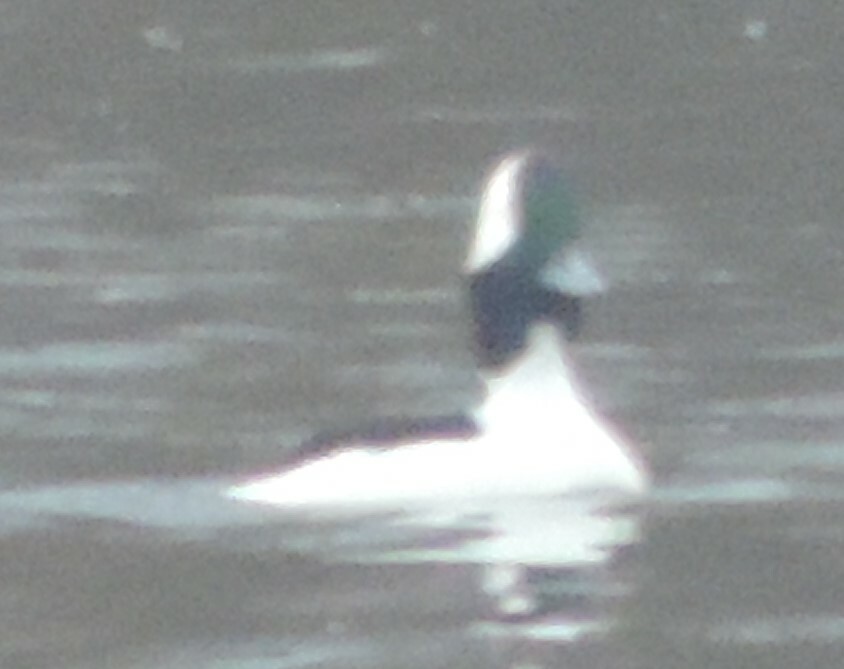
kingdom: Animalia
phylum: Chordata
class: Aves
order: Anseriformes
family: Anatidae
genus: Bucephala
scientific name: Bucephala albeola
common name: Bufflehead
